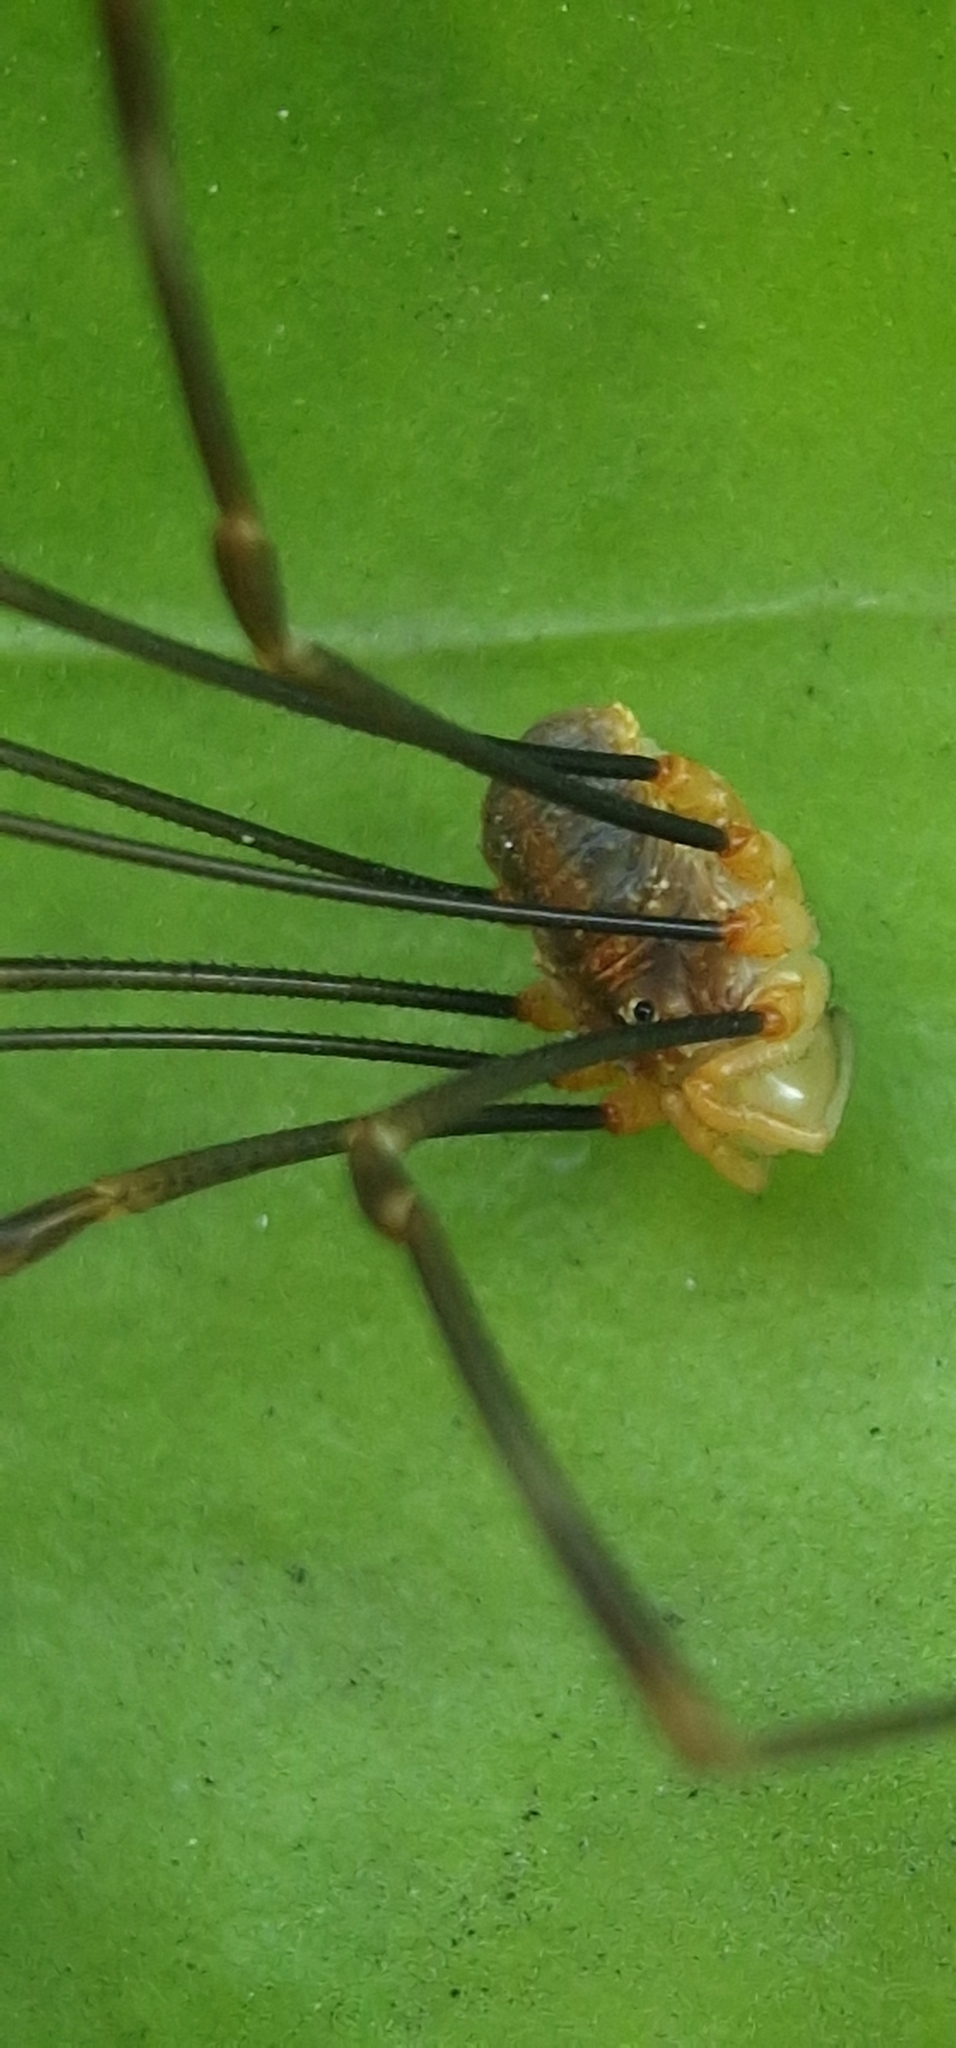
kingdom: Animalia
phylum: Arthropoda
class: Arachnida
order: Opiliones
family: Phalangiidae
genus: Opilio
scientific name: Opilio canestrinii
